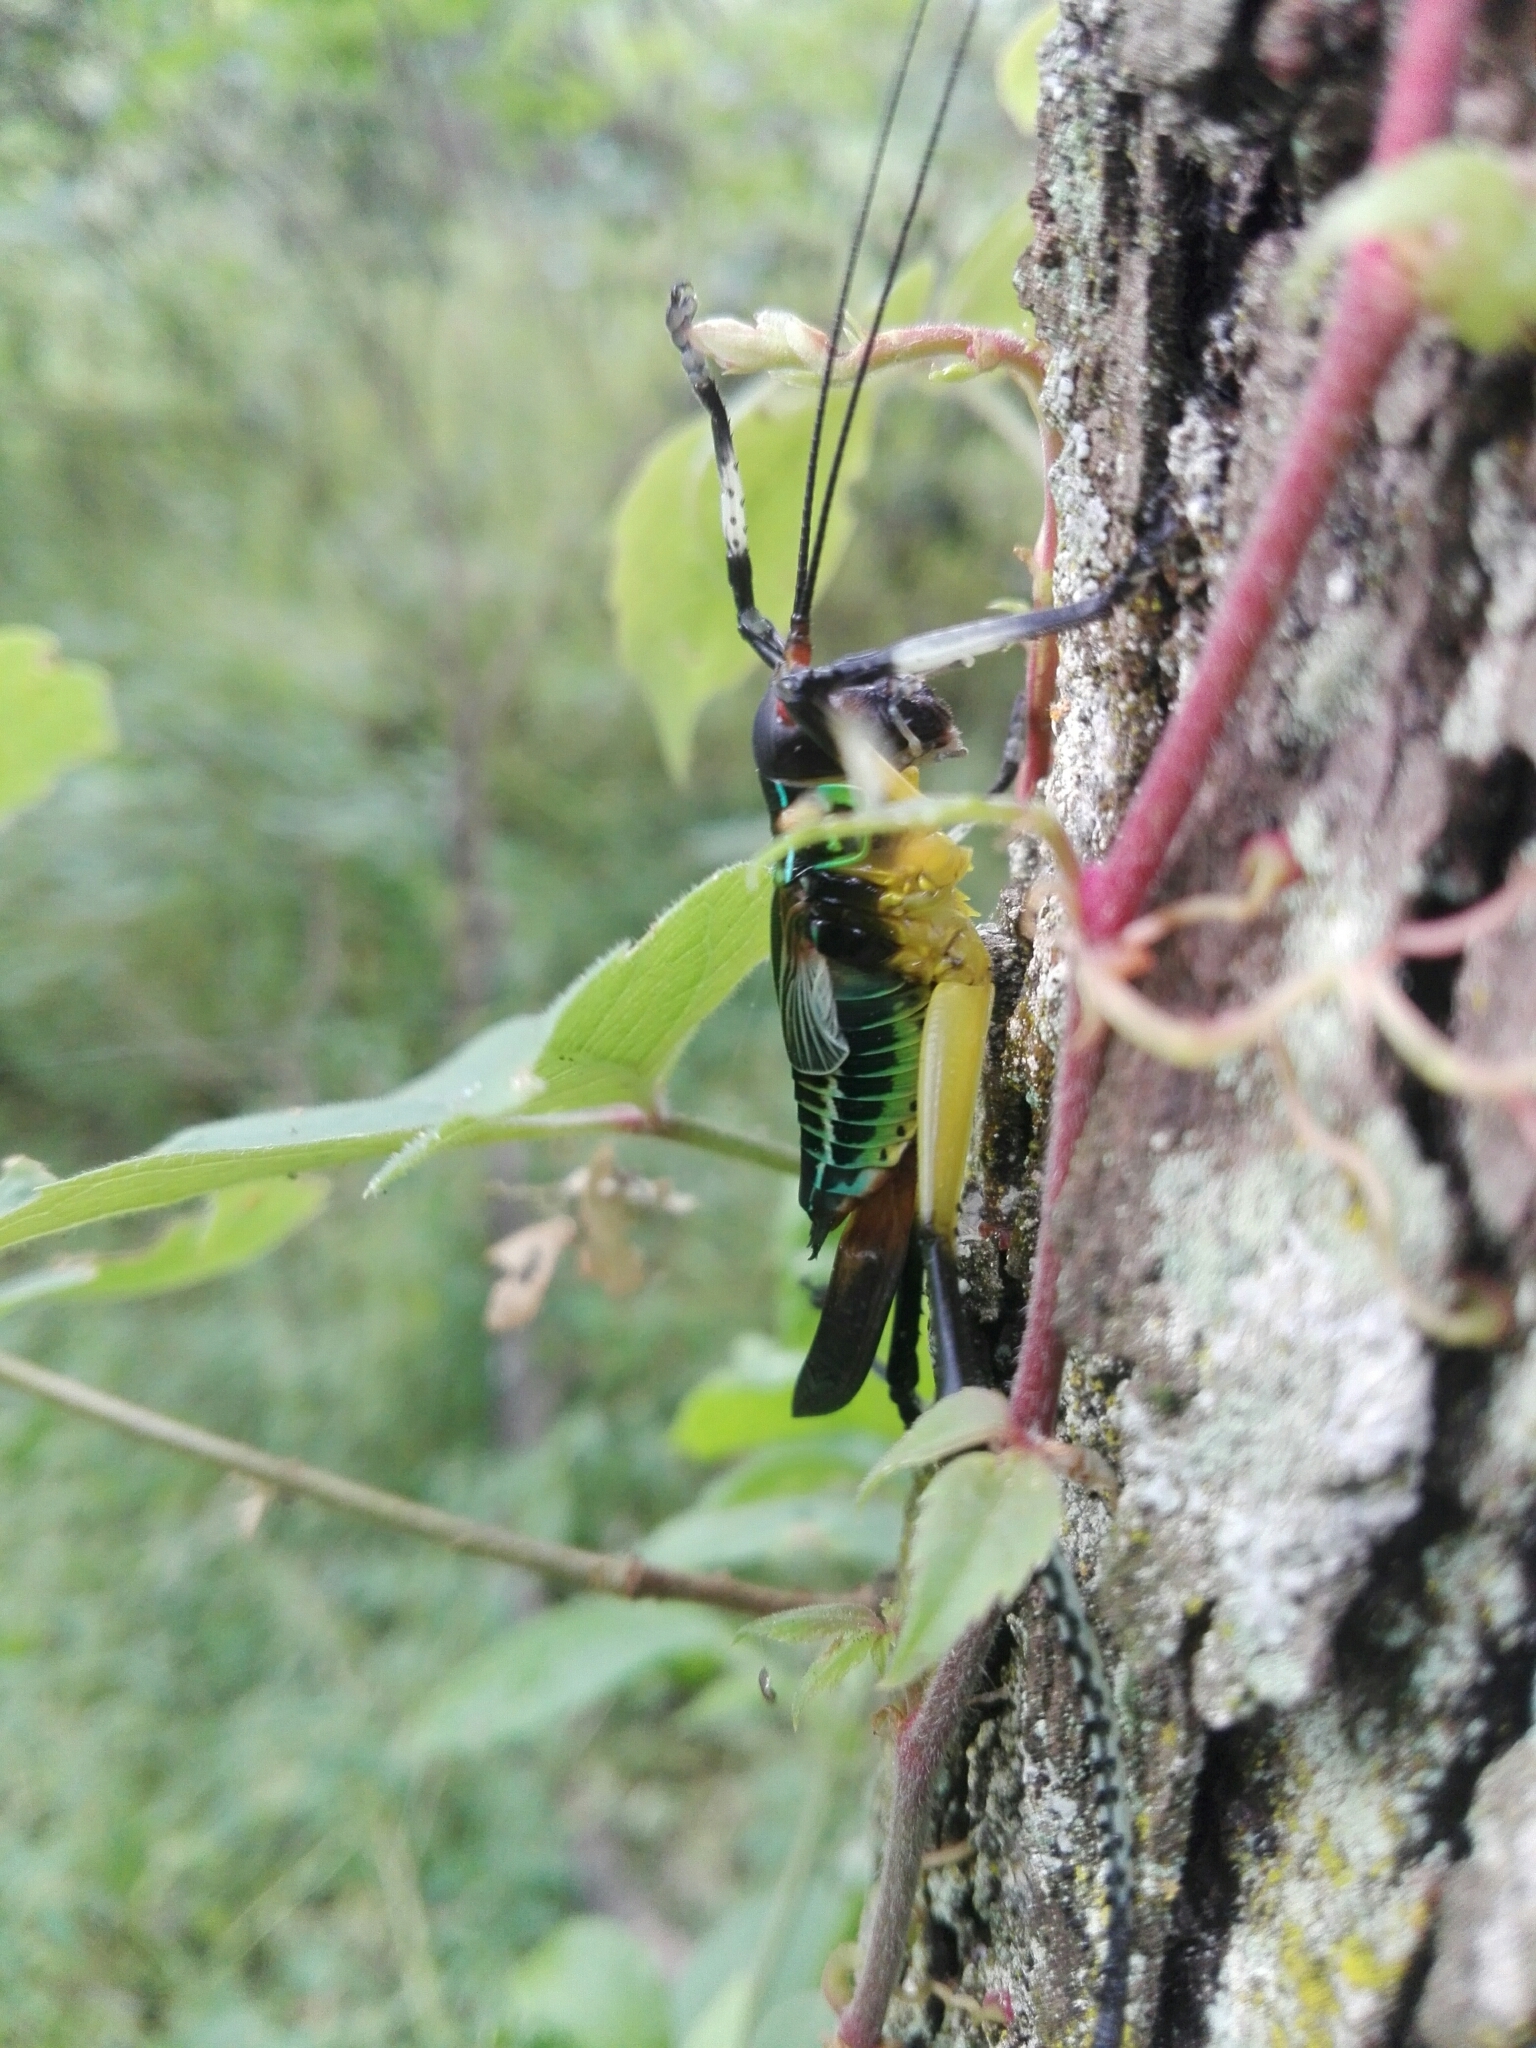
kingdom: Animalia
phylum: Arthropoda
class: Insecta
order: Orthoptera
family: Tettigoniidae
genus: Pterophylla
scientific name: Pterophylla beltrani
